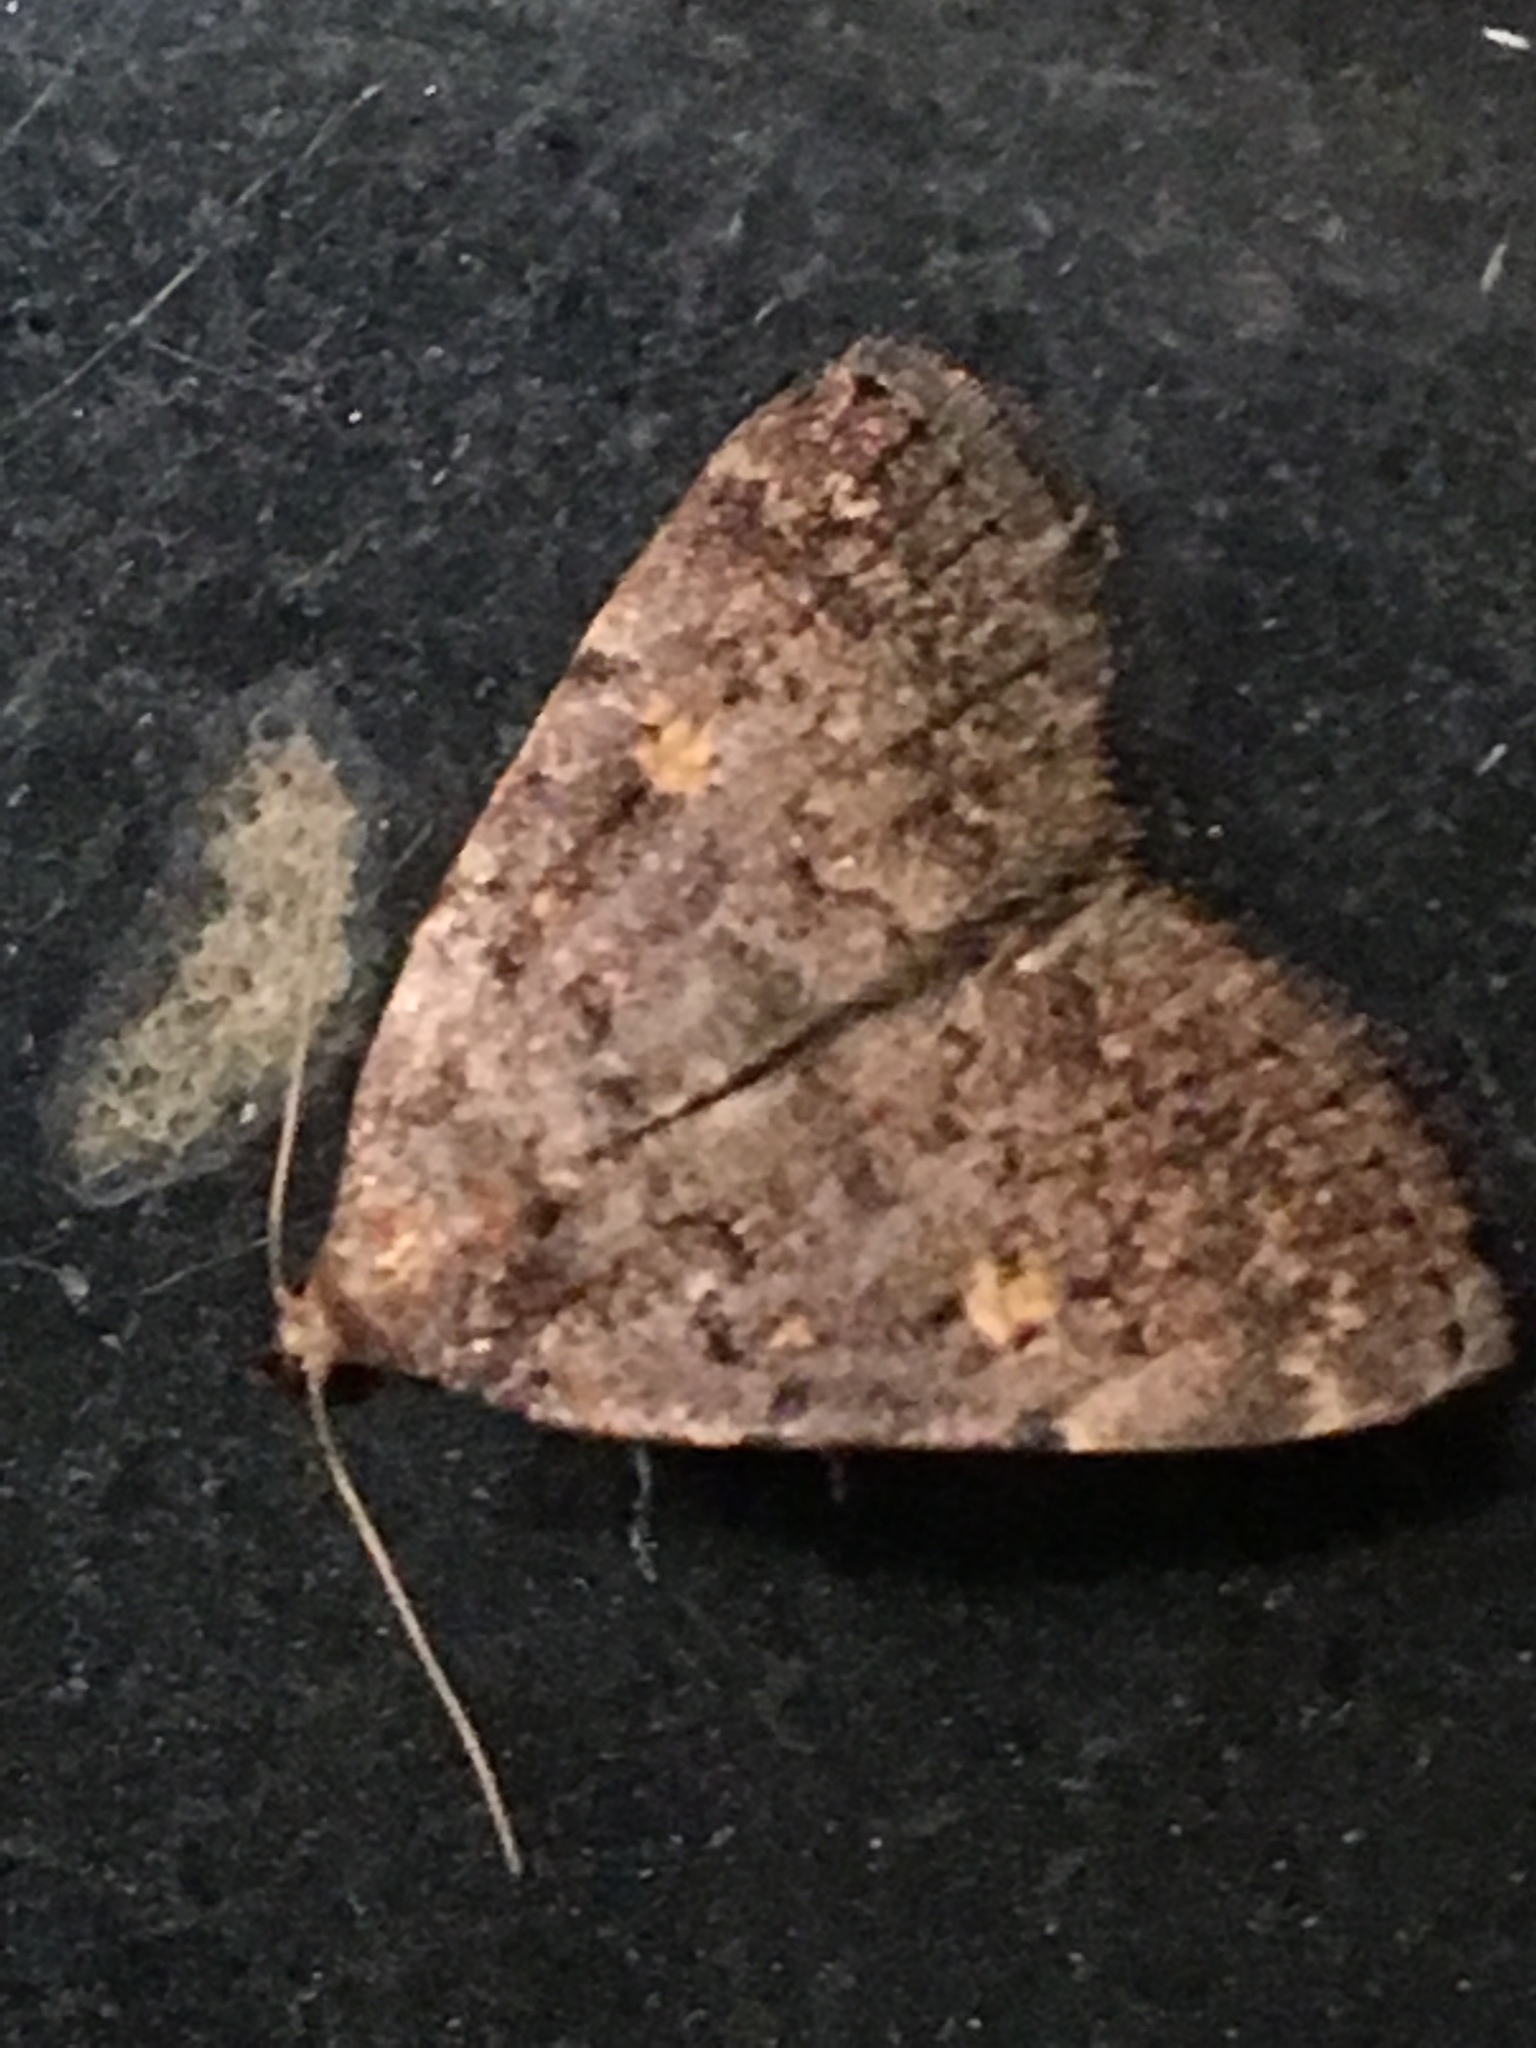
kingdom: Animalia
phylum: Arthropoda
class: Insecta
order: Lepidoptera
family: Erebidae
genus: Idia
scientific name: Idia aemula
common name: Common idia moth
